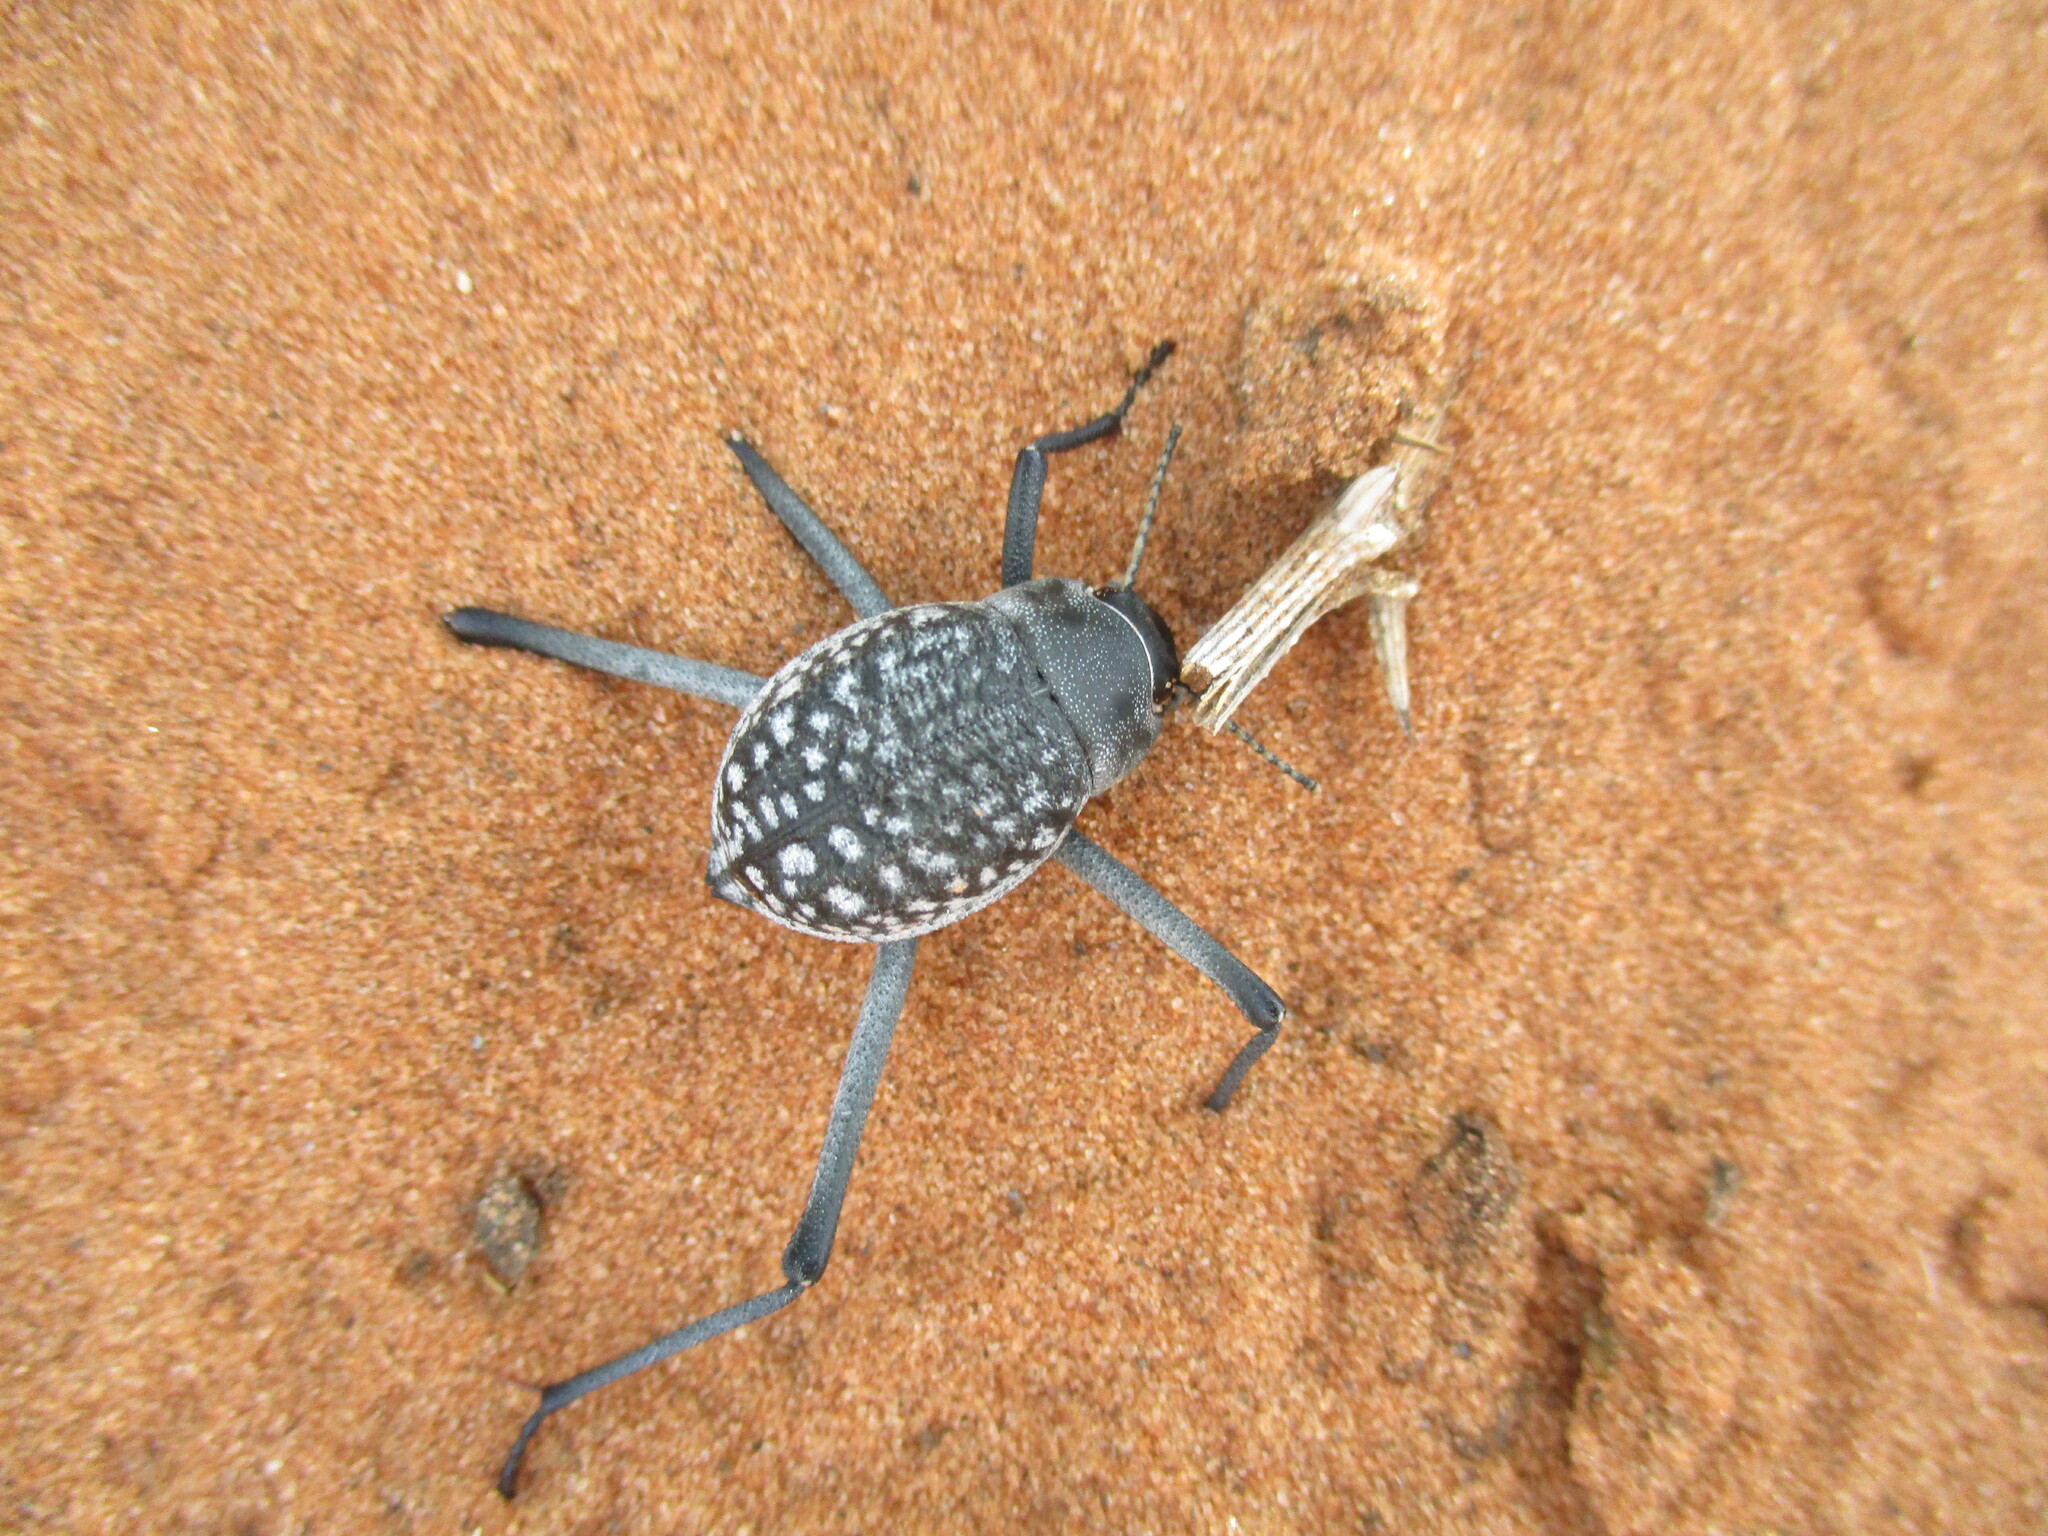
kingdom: Animalia
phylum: Arthropoda
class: Insecta
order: Coleoptera
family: Tenebrionidae
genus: Onymacris
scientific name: Onymacris
